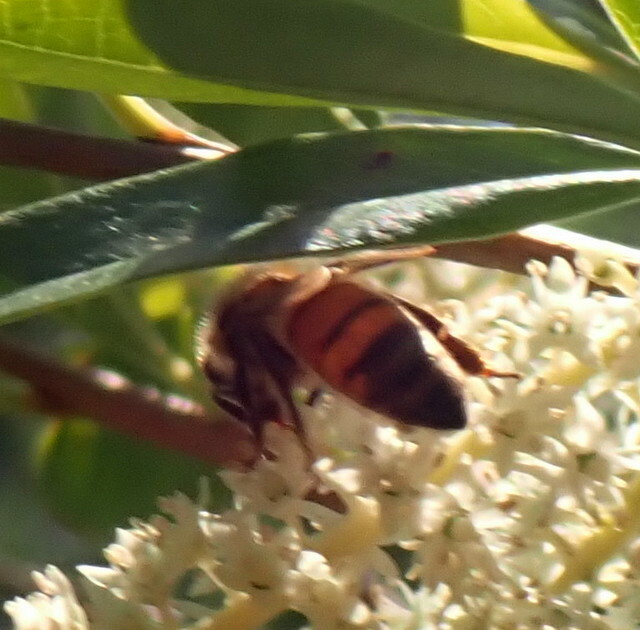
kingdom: Animalia
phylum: Arthropoda
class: Insecta
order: Hymenoptera
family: Apidae
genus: Apis
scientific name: Apis mellifera
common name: Honey bee
